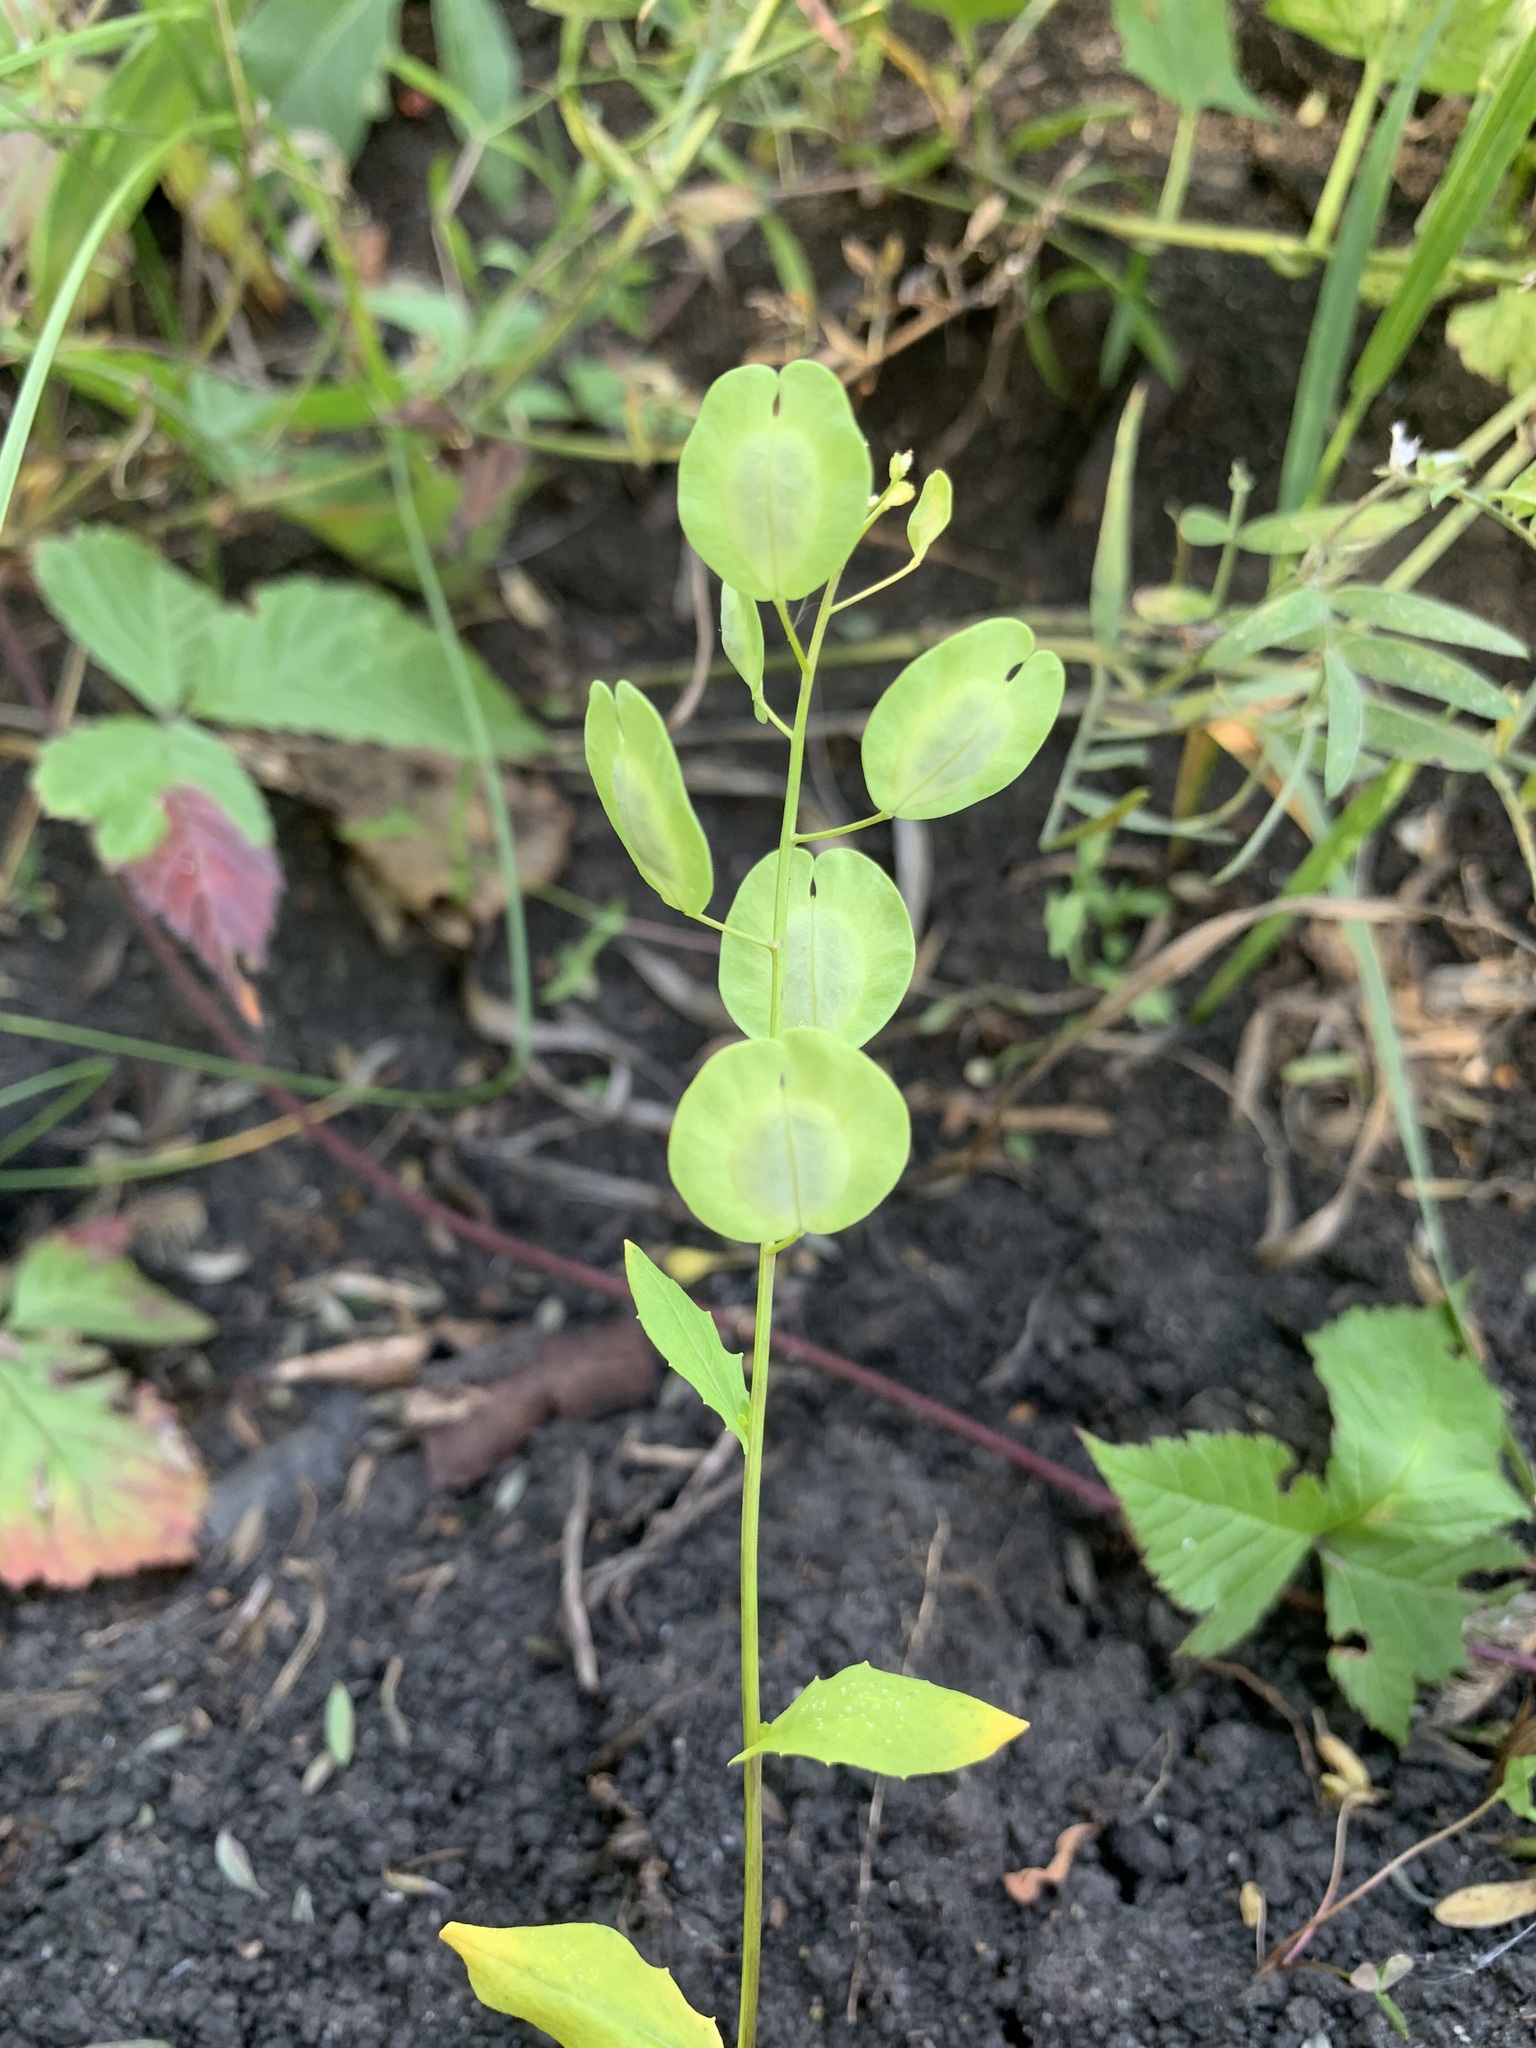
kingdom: Plantae
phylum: Tracheophyta
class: Magnoliopsida
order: Brassicales
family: Brassicaceae
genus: Thlaspi
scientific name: Thlaspi arvense
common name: Field pennycress
